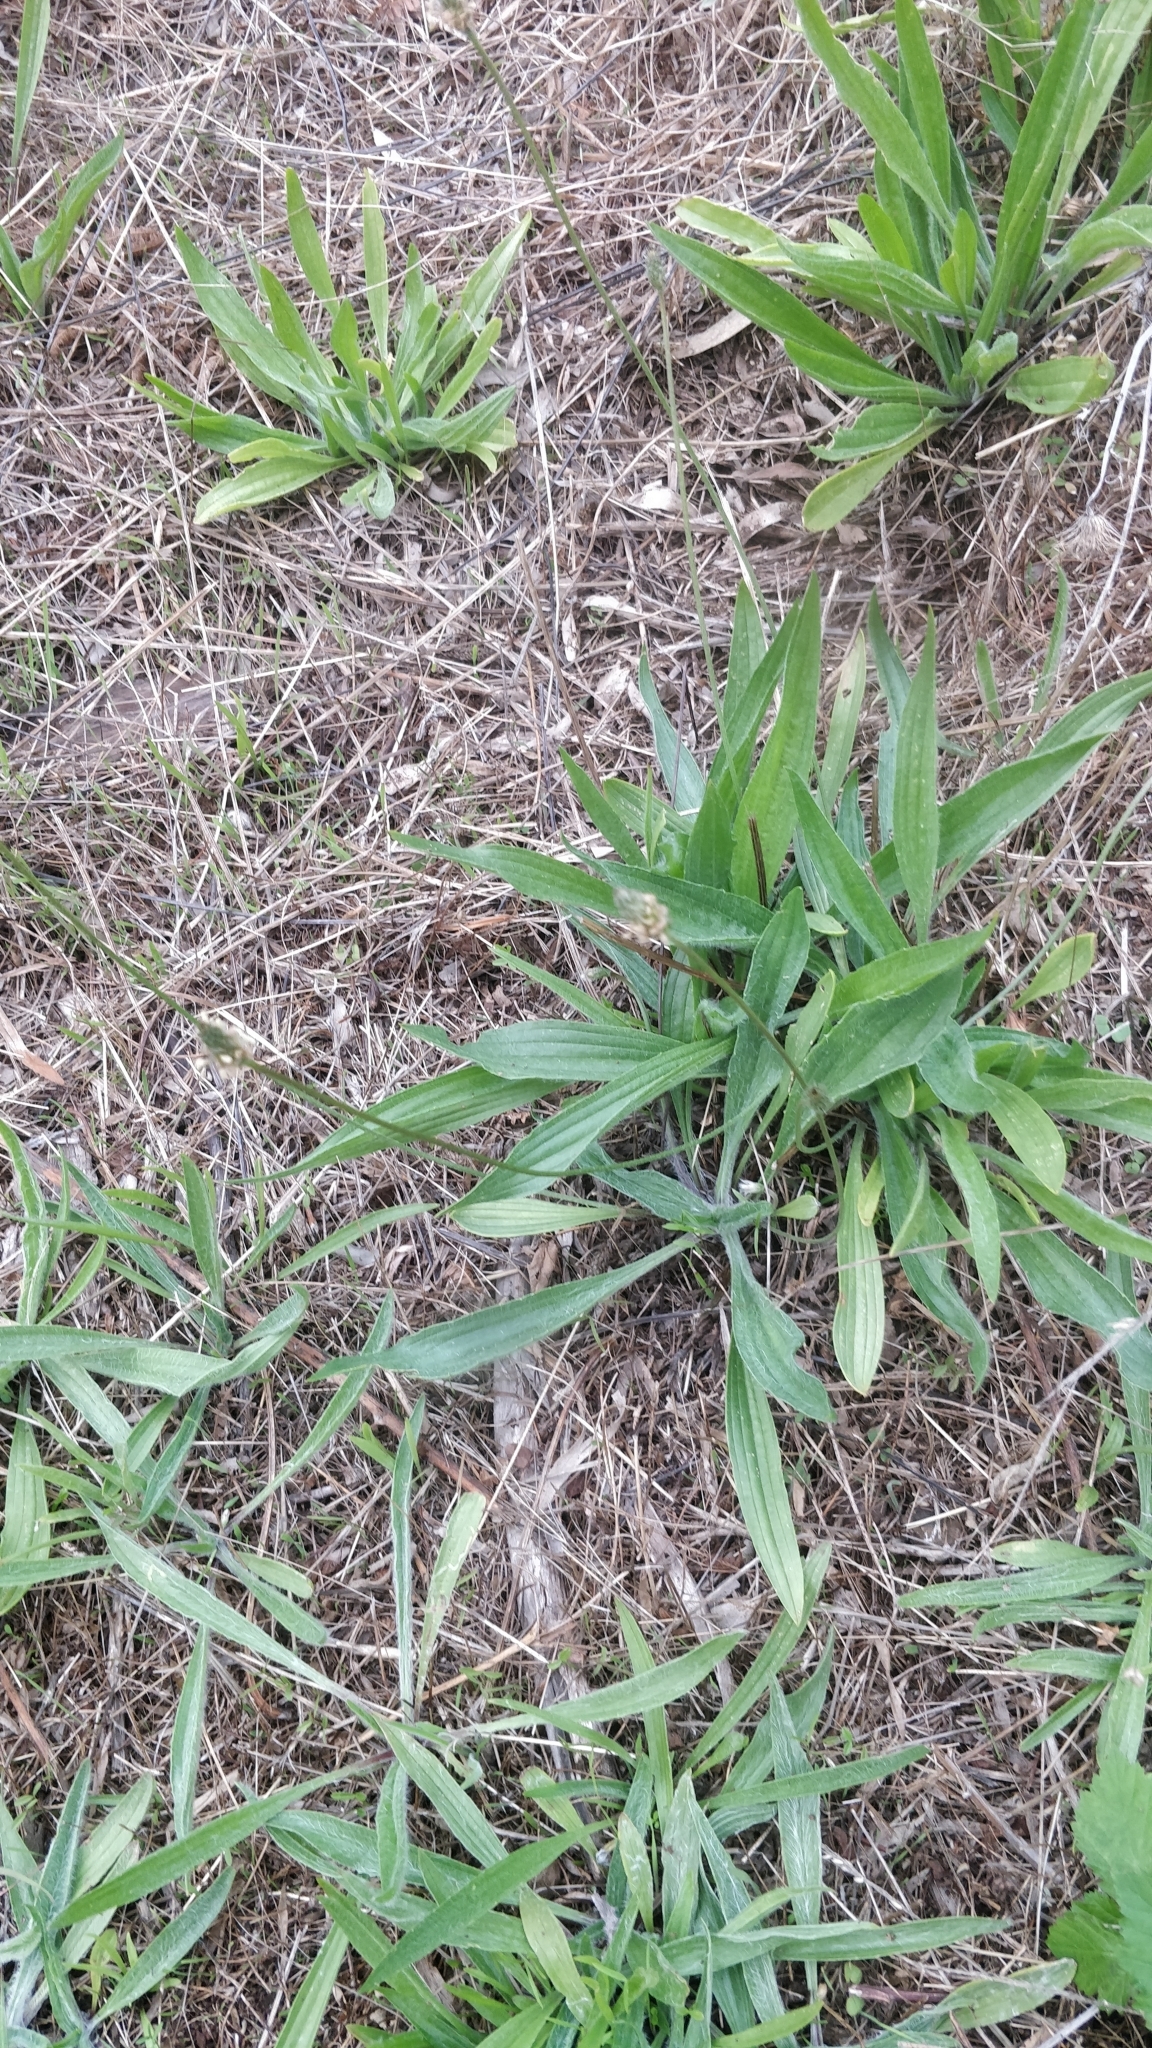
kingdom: Plantae
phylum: Tracheophyta
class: Magnoliopsida
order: Lamiales
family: Plantaginaceae
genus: Plantago
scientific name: Plantago lanceolata
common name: Ribwort plantain
